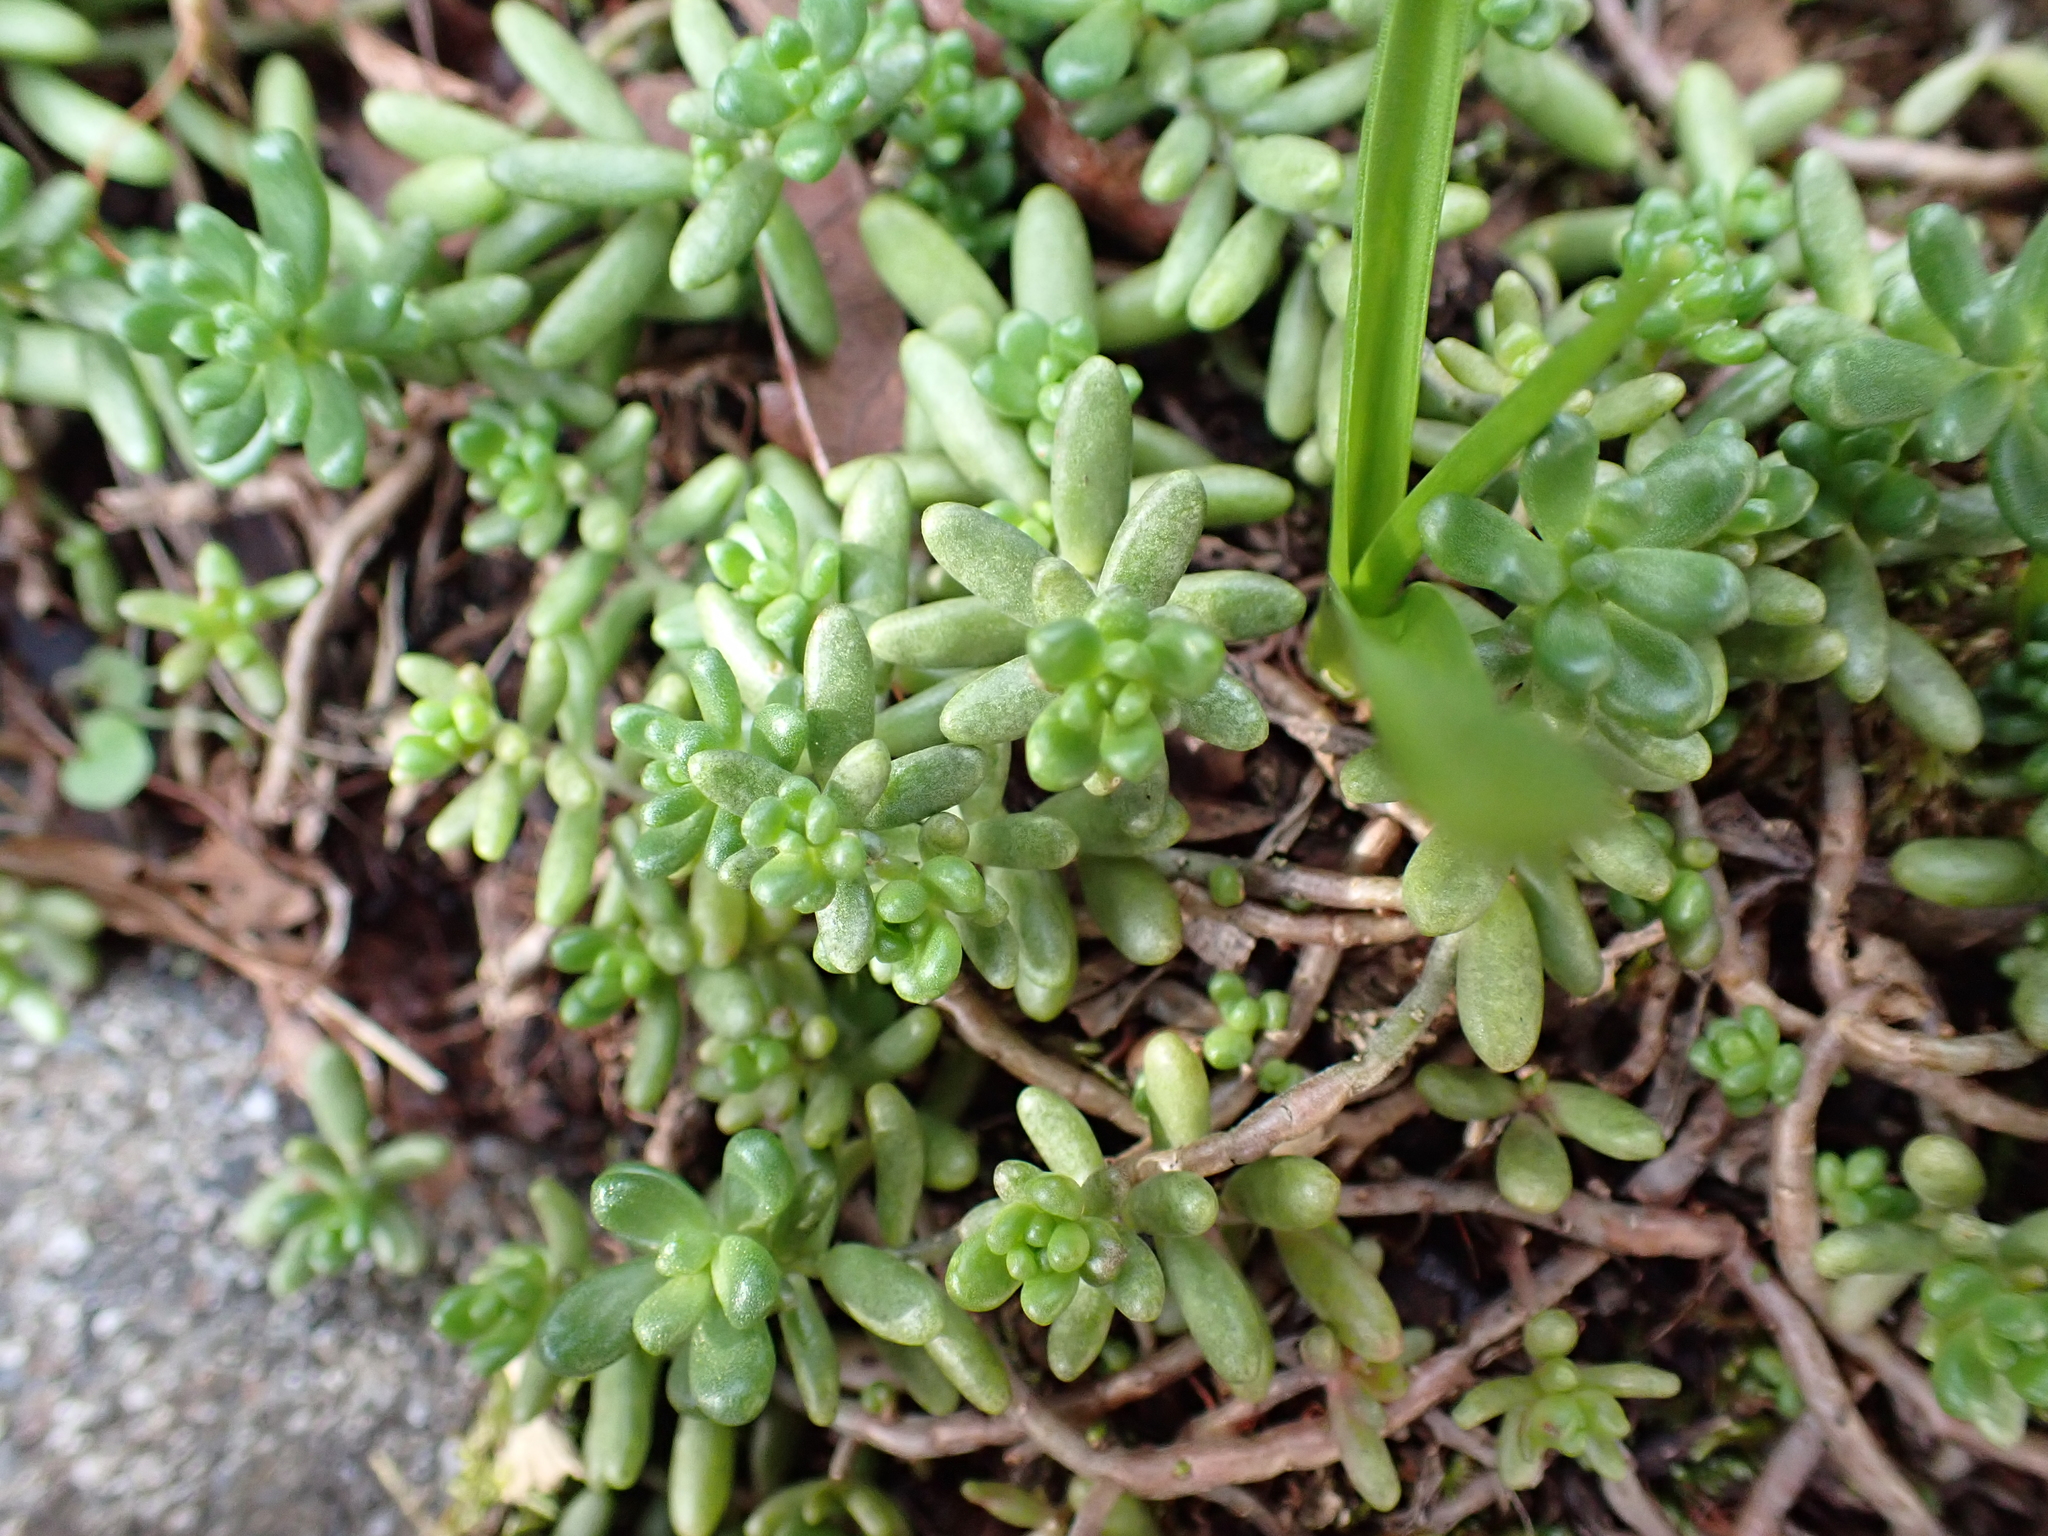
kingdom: Plantae
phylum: Tracheophyta
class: Magnoliopsida
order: Saxifragales
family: Crassulaceae
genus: Sedum
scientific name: Sedum album
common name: White stonecrop
